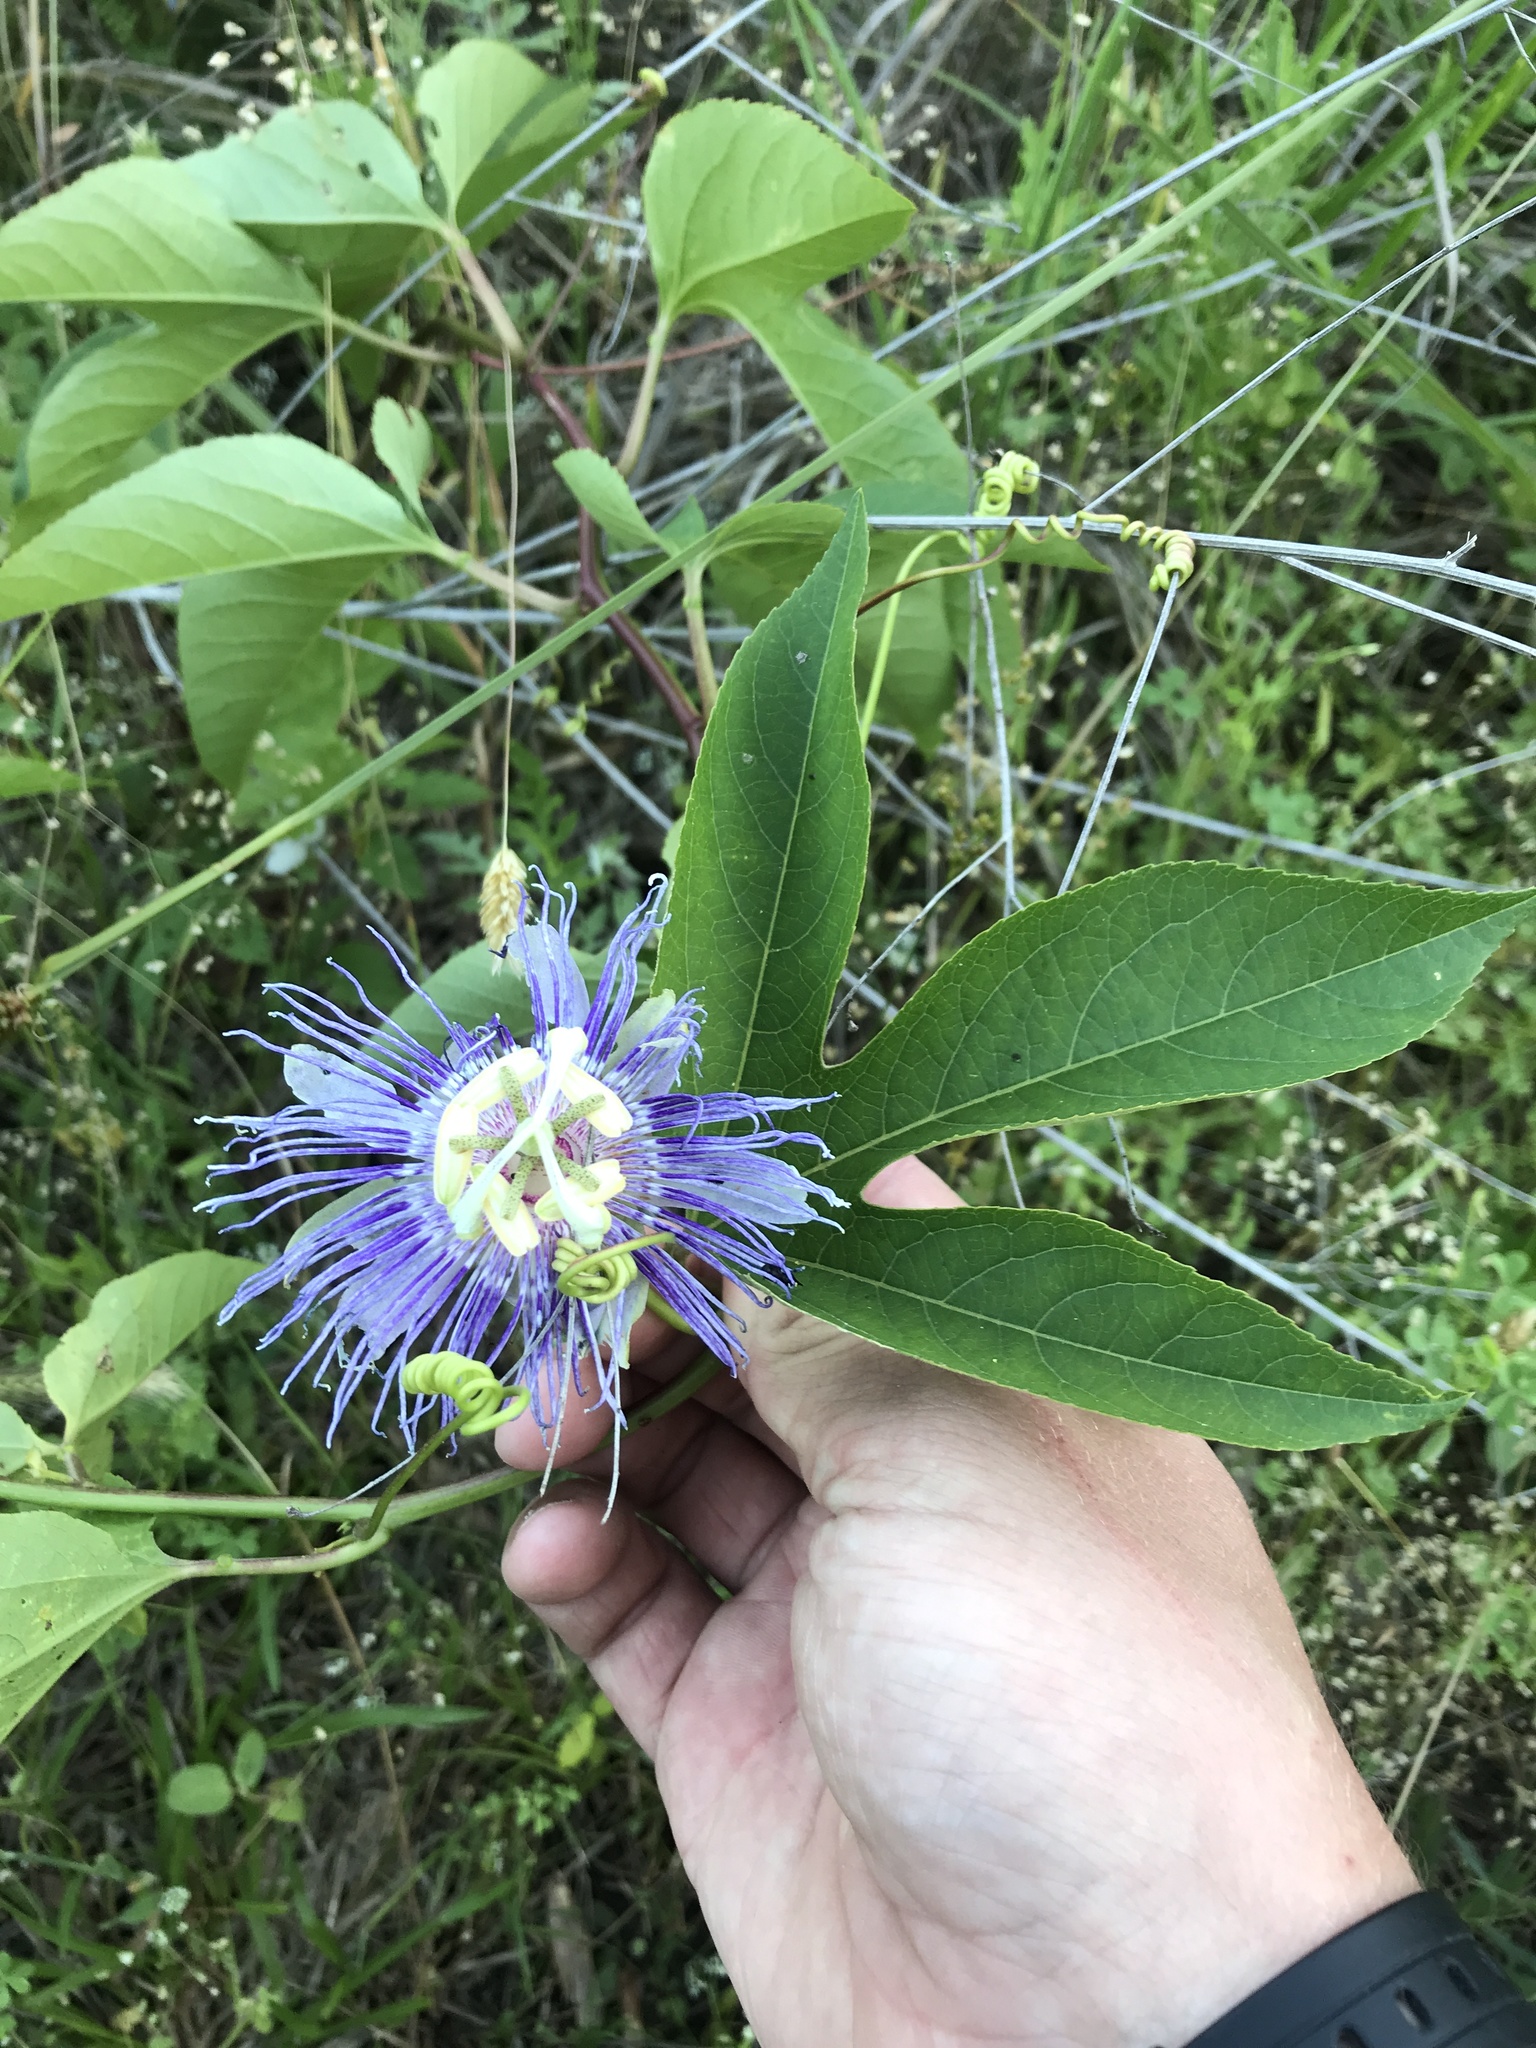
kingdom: Plantae
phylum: Tracheophyta
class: Magnoliopsida
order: Malpighiales
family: Passifloraceae
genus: Passiflora
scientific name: Passiflora incarnata
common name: Apricot-vine
